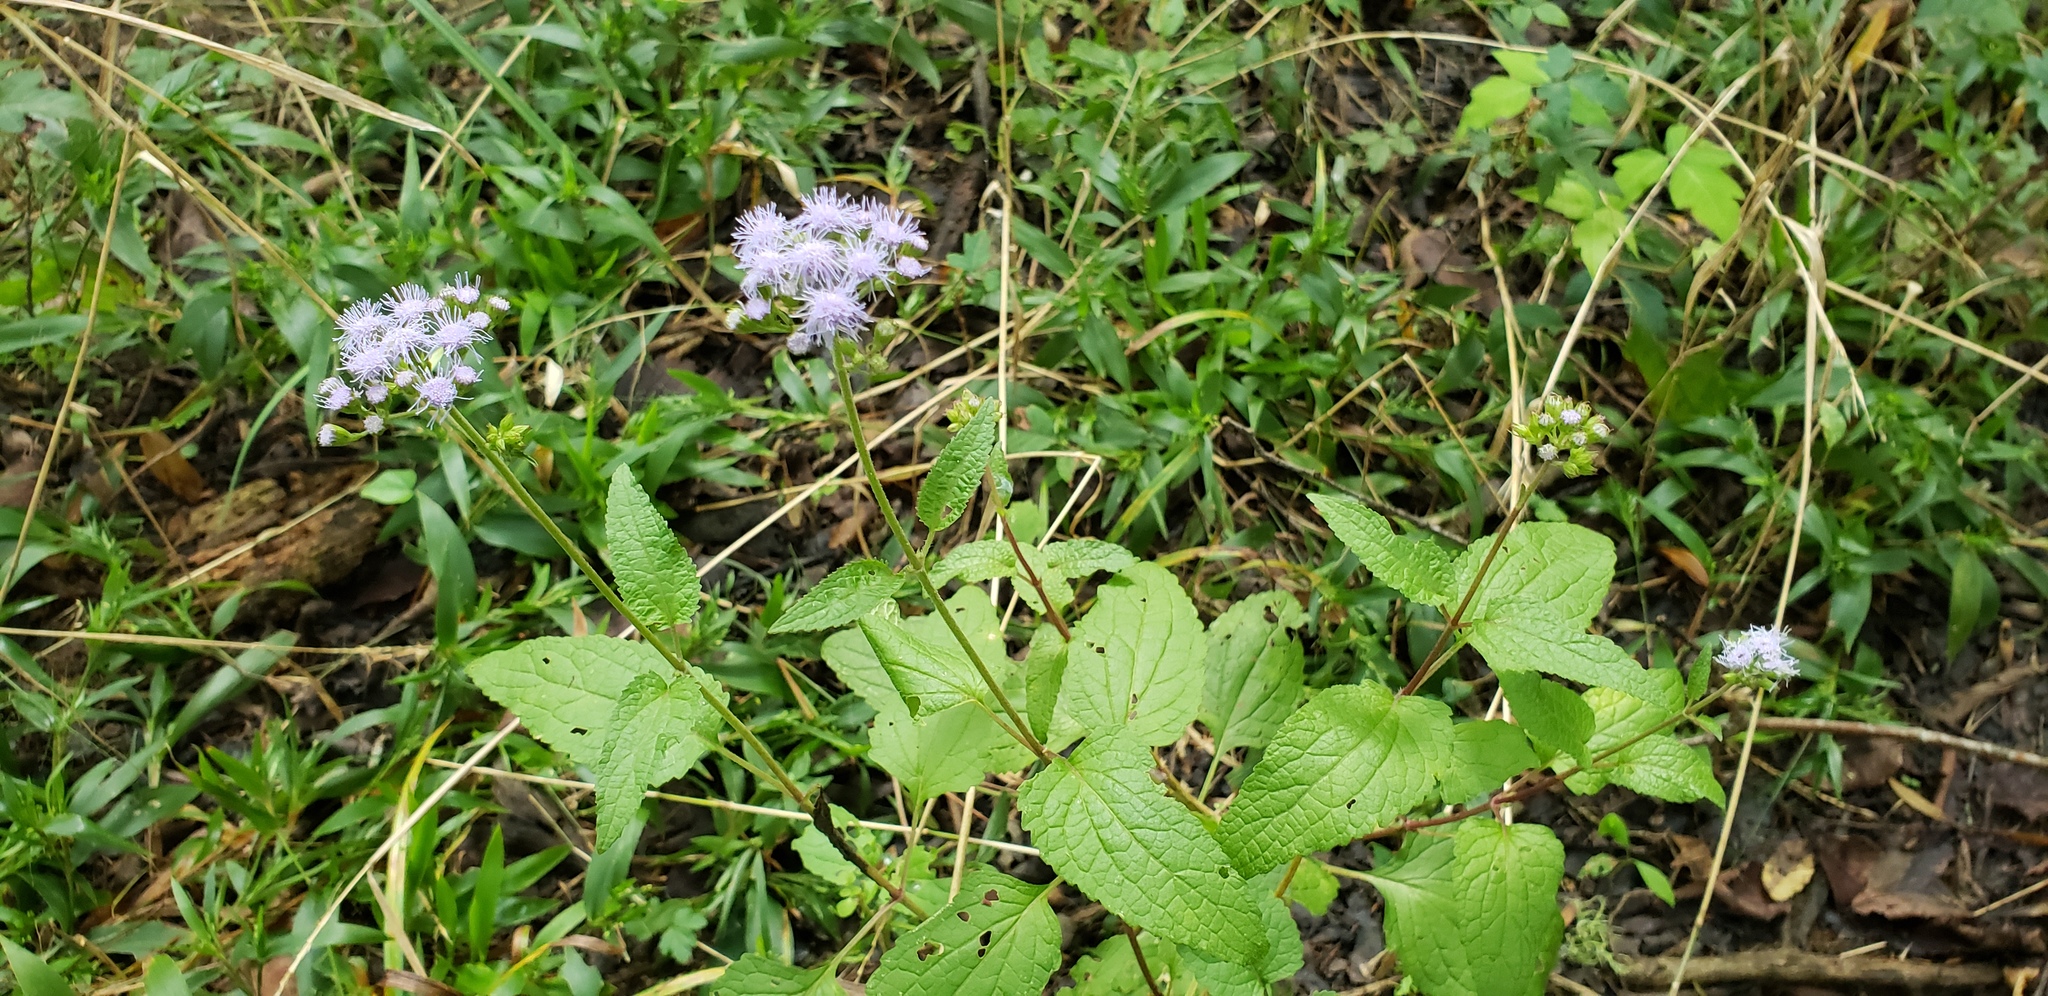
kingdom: Plantae
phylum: Tracheophyta
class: Magnoliopsida
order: Asterales
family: Asteraceae
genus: Conoclinium
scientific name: Conoclinium coelestinum
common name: Blue mistflower
